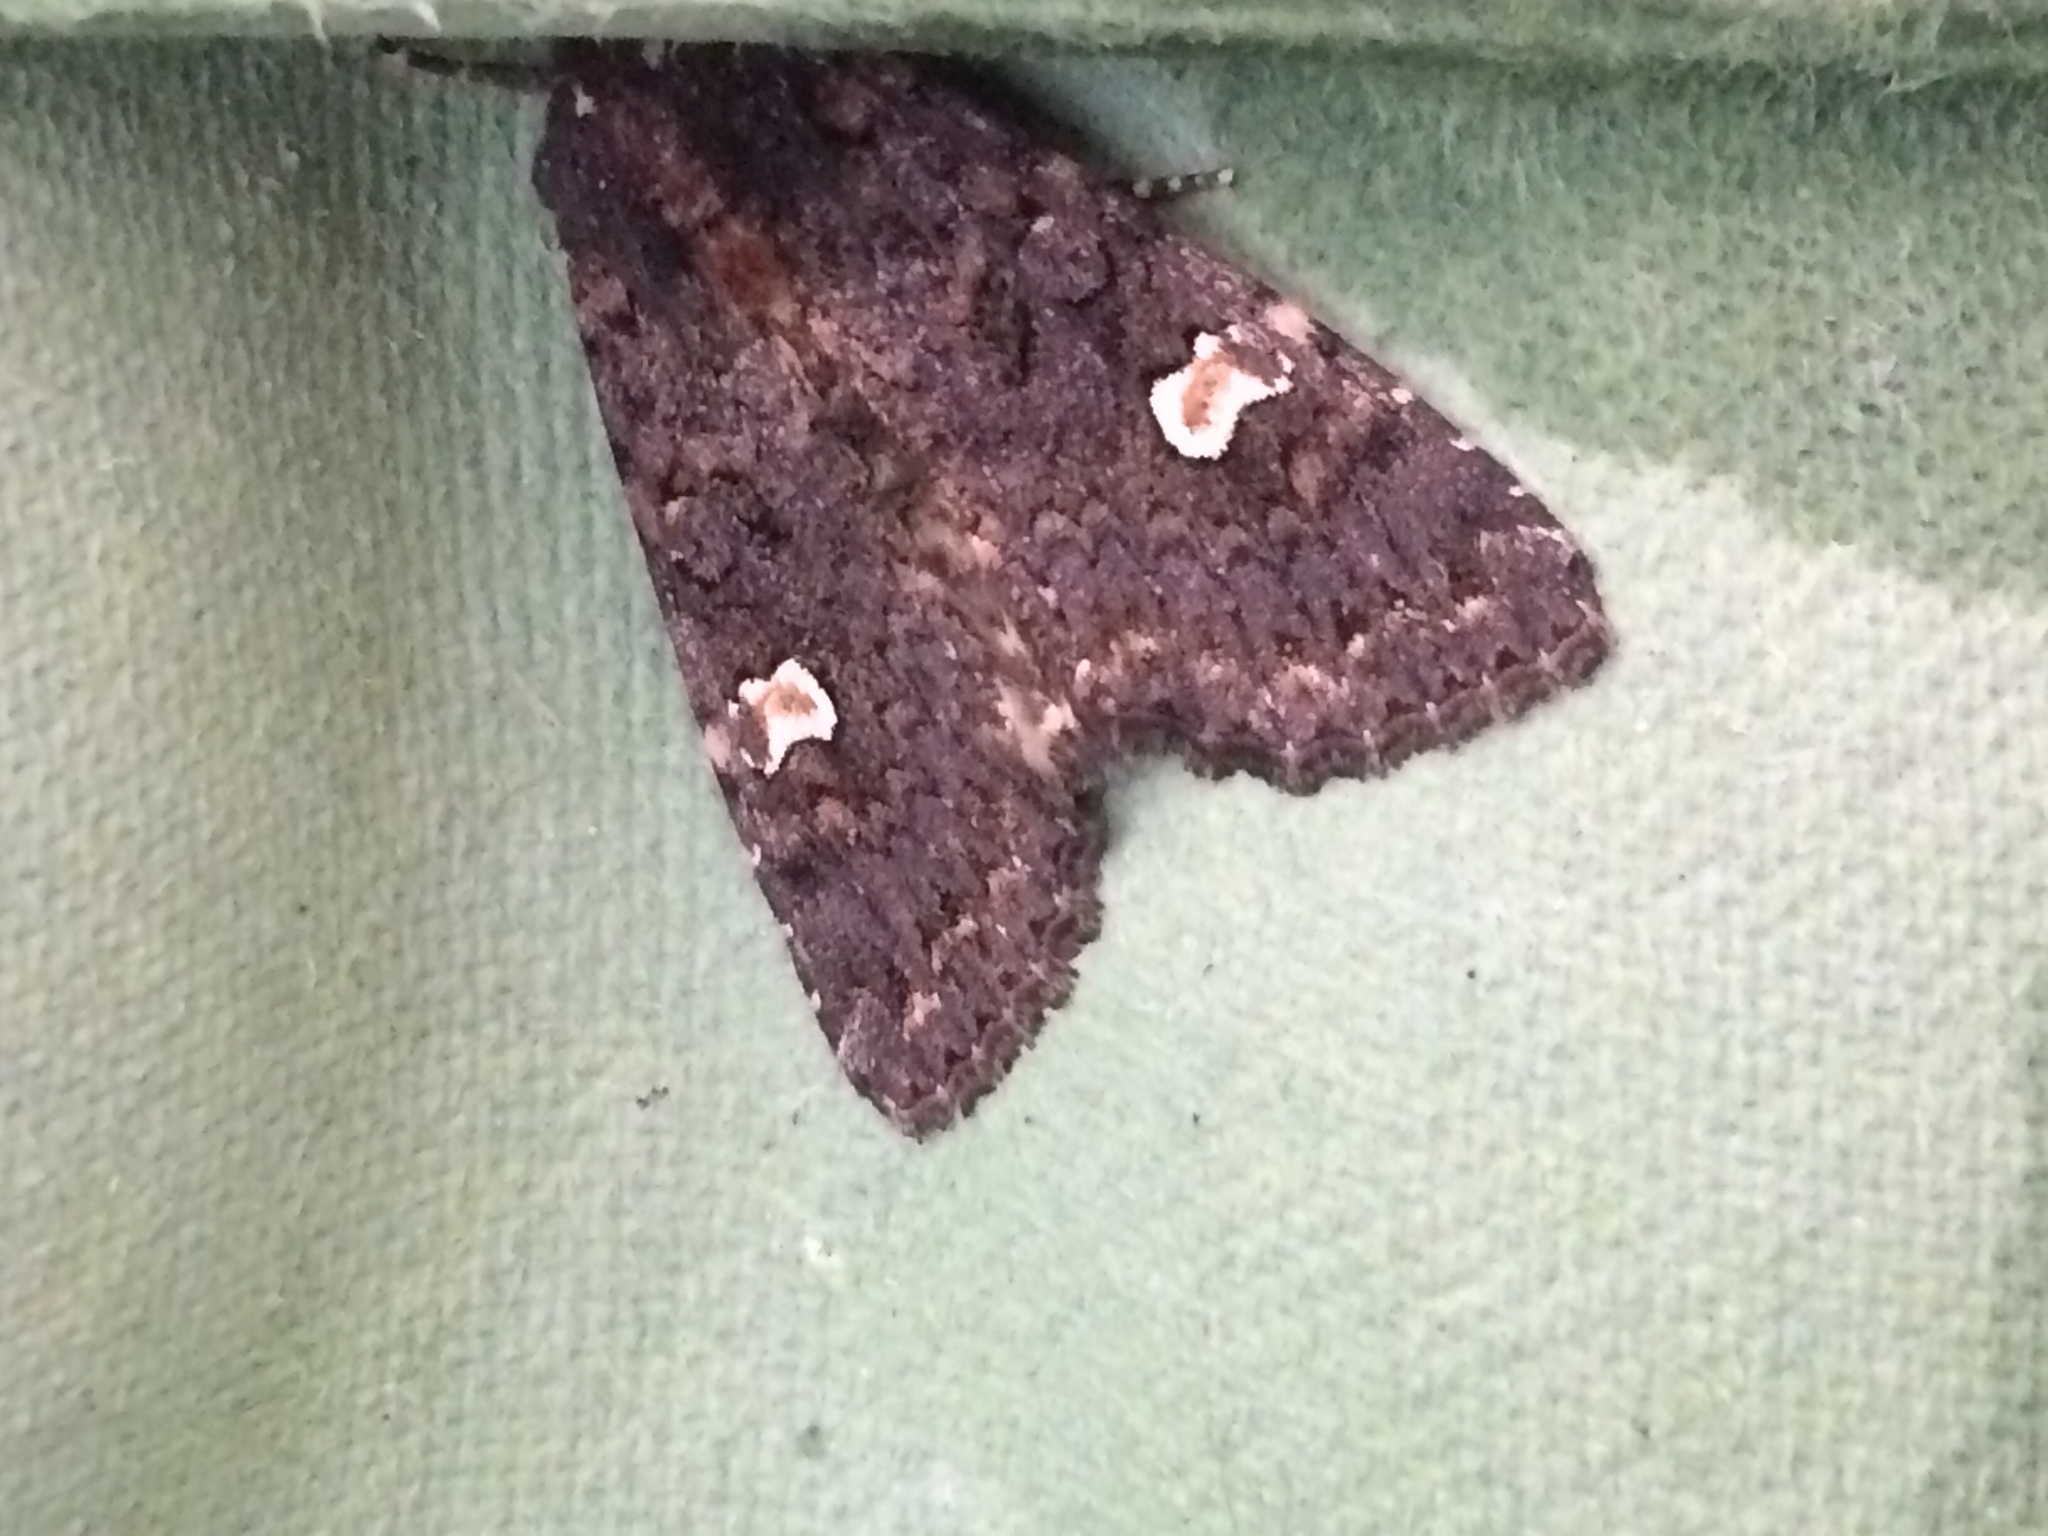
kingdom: Animalia
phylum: Arthropoda
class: Insecta
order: Lepidoptera
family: Noctuidae
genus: Melanchra
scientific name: Melanchra persicariae
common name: Dot moth
